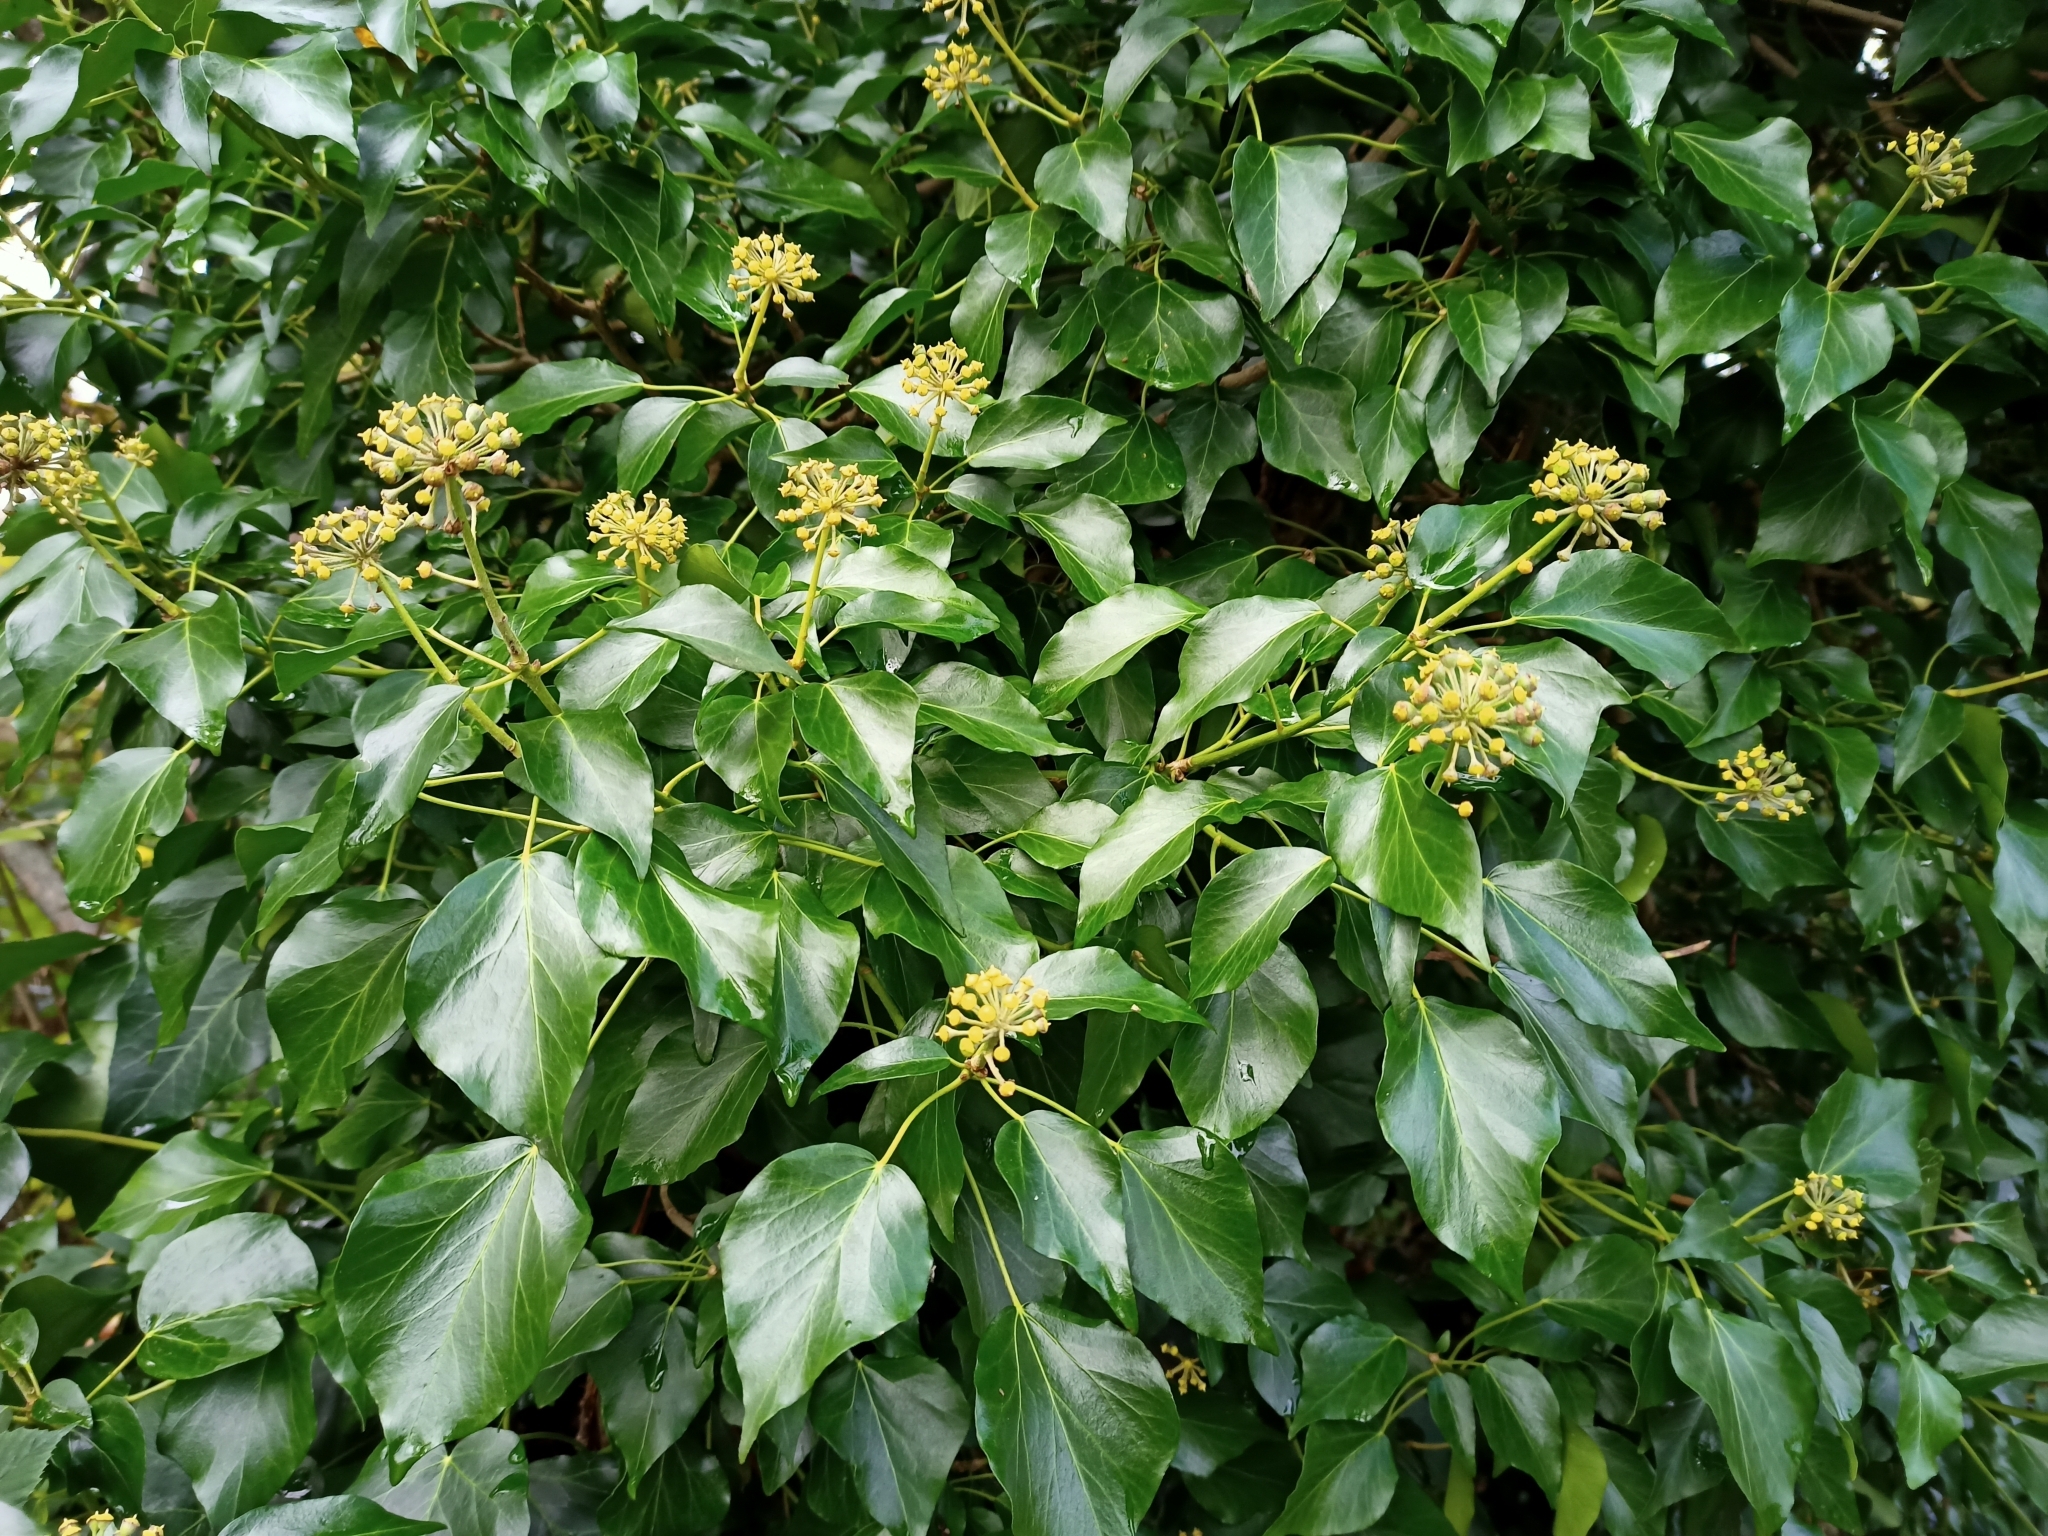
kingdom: Plantae
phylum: Tracheophyta
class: Magnoliopsida
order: Apiales
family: Araliaceae
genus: Hedera
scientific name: Hedera helix
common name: Ivy
